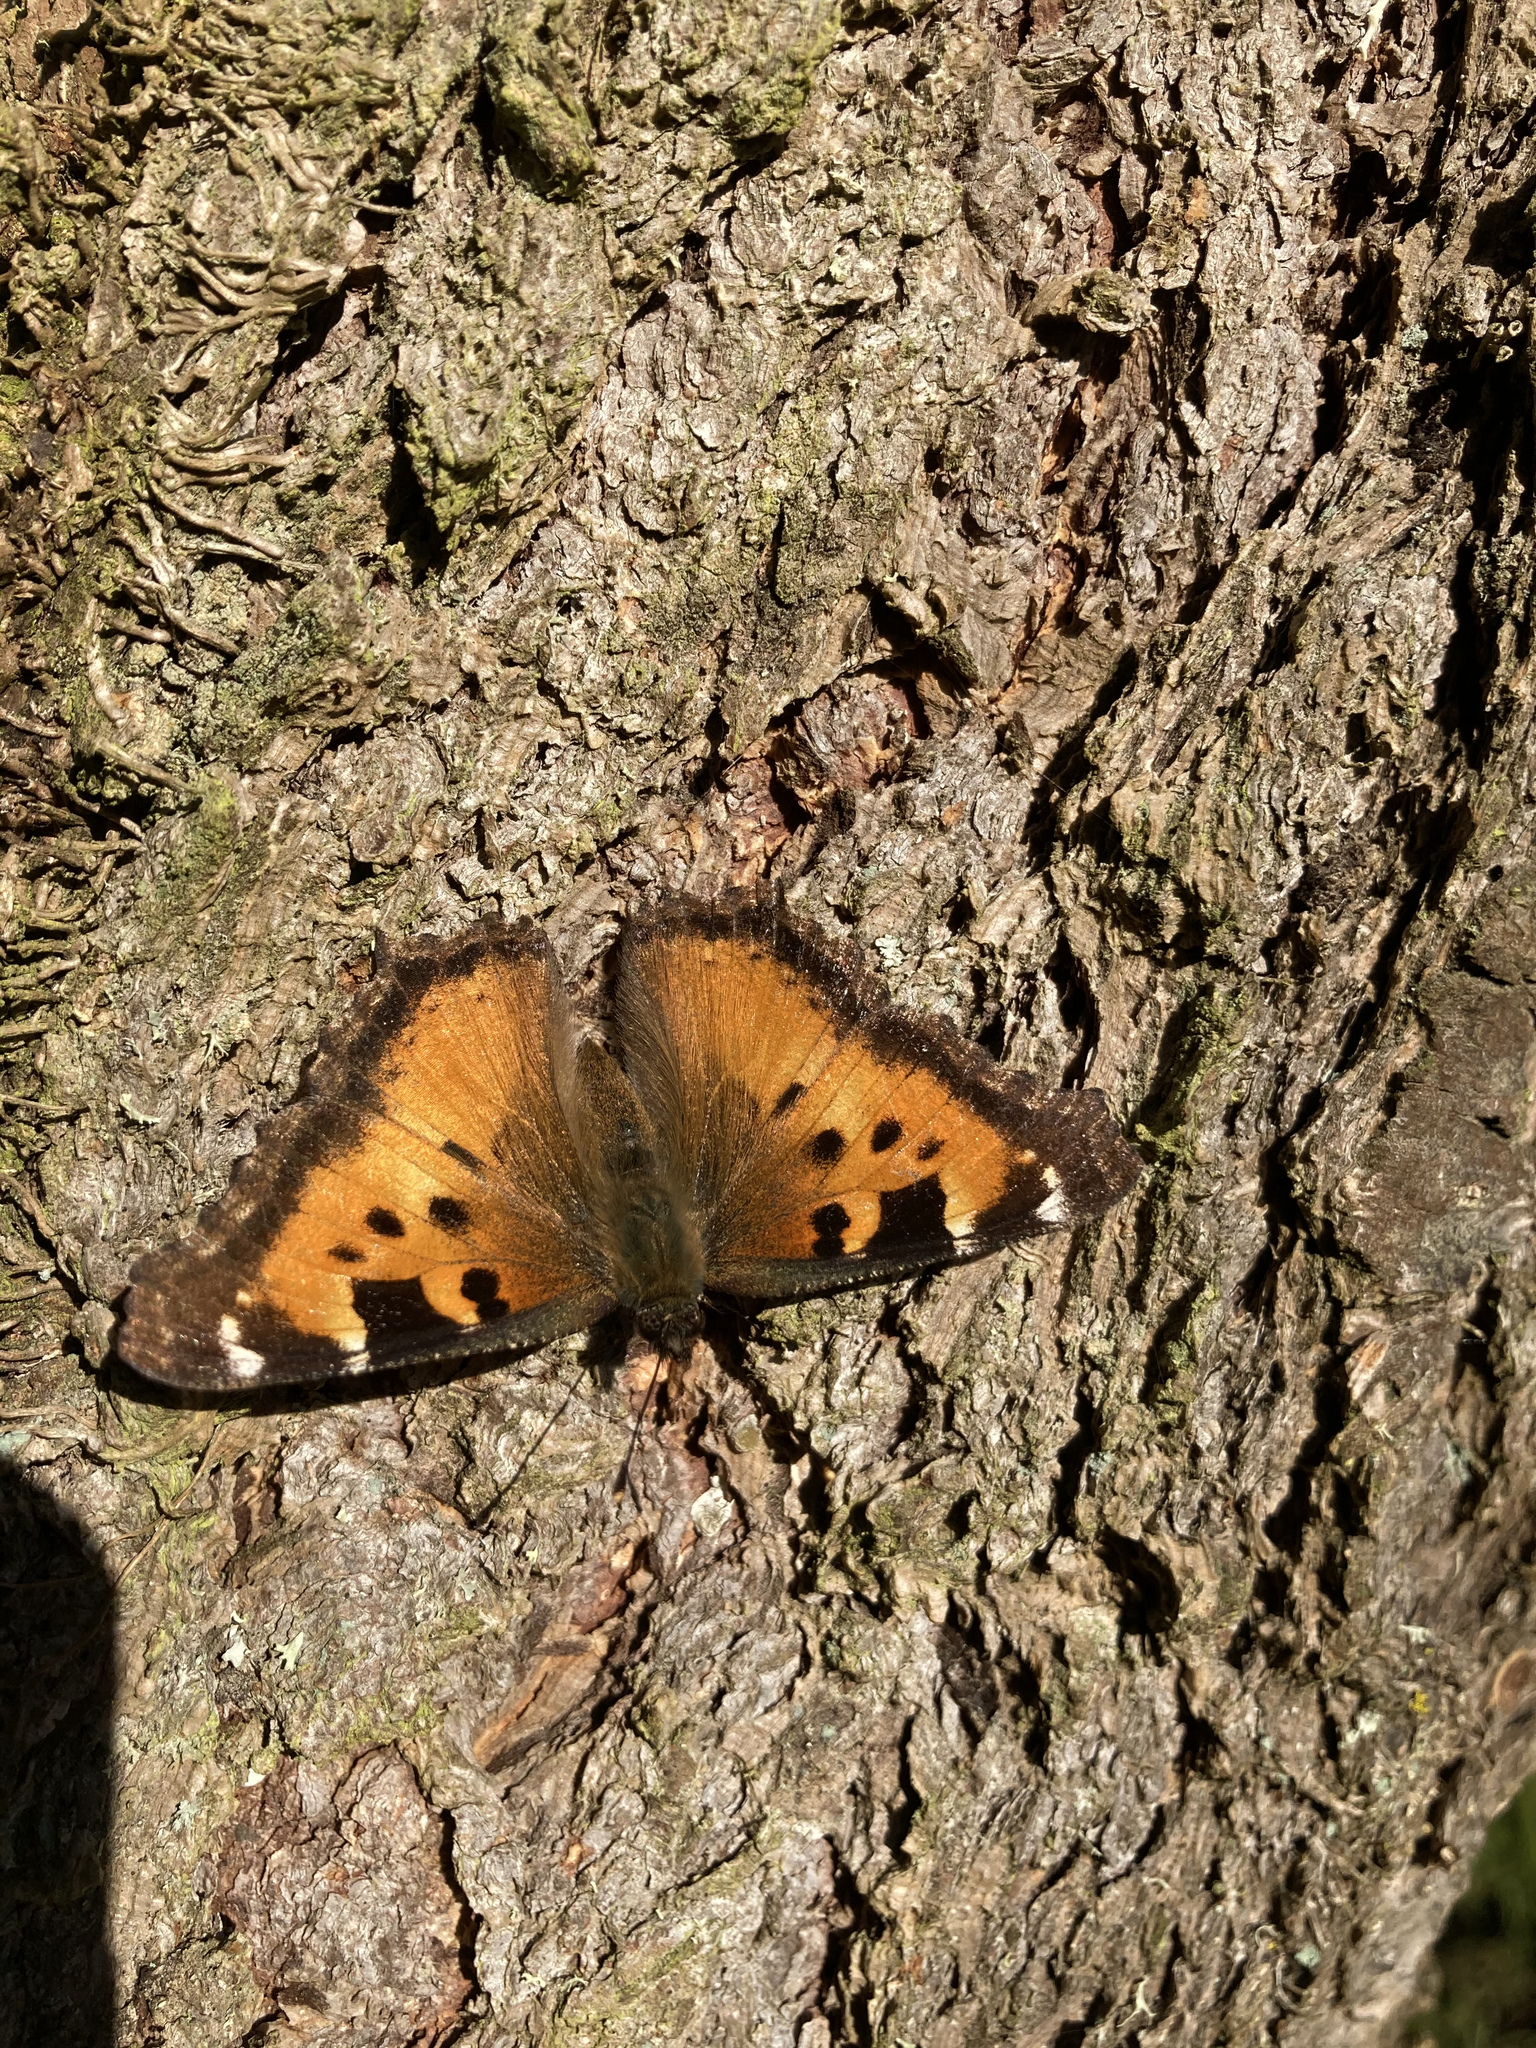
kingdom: Animalia
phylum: Arthropoda
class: Insecta
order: Lepidoptera
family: Nymphalidae
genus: Nymphalis
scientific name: Nymphalis californica
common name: California tortoiseshell
